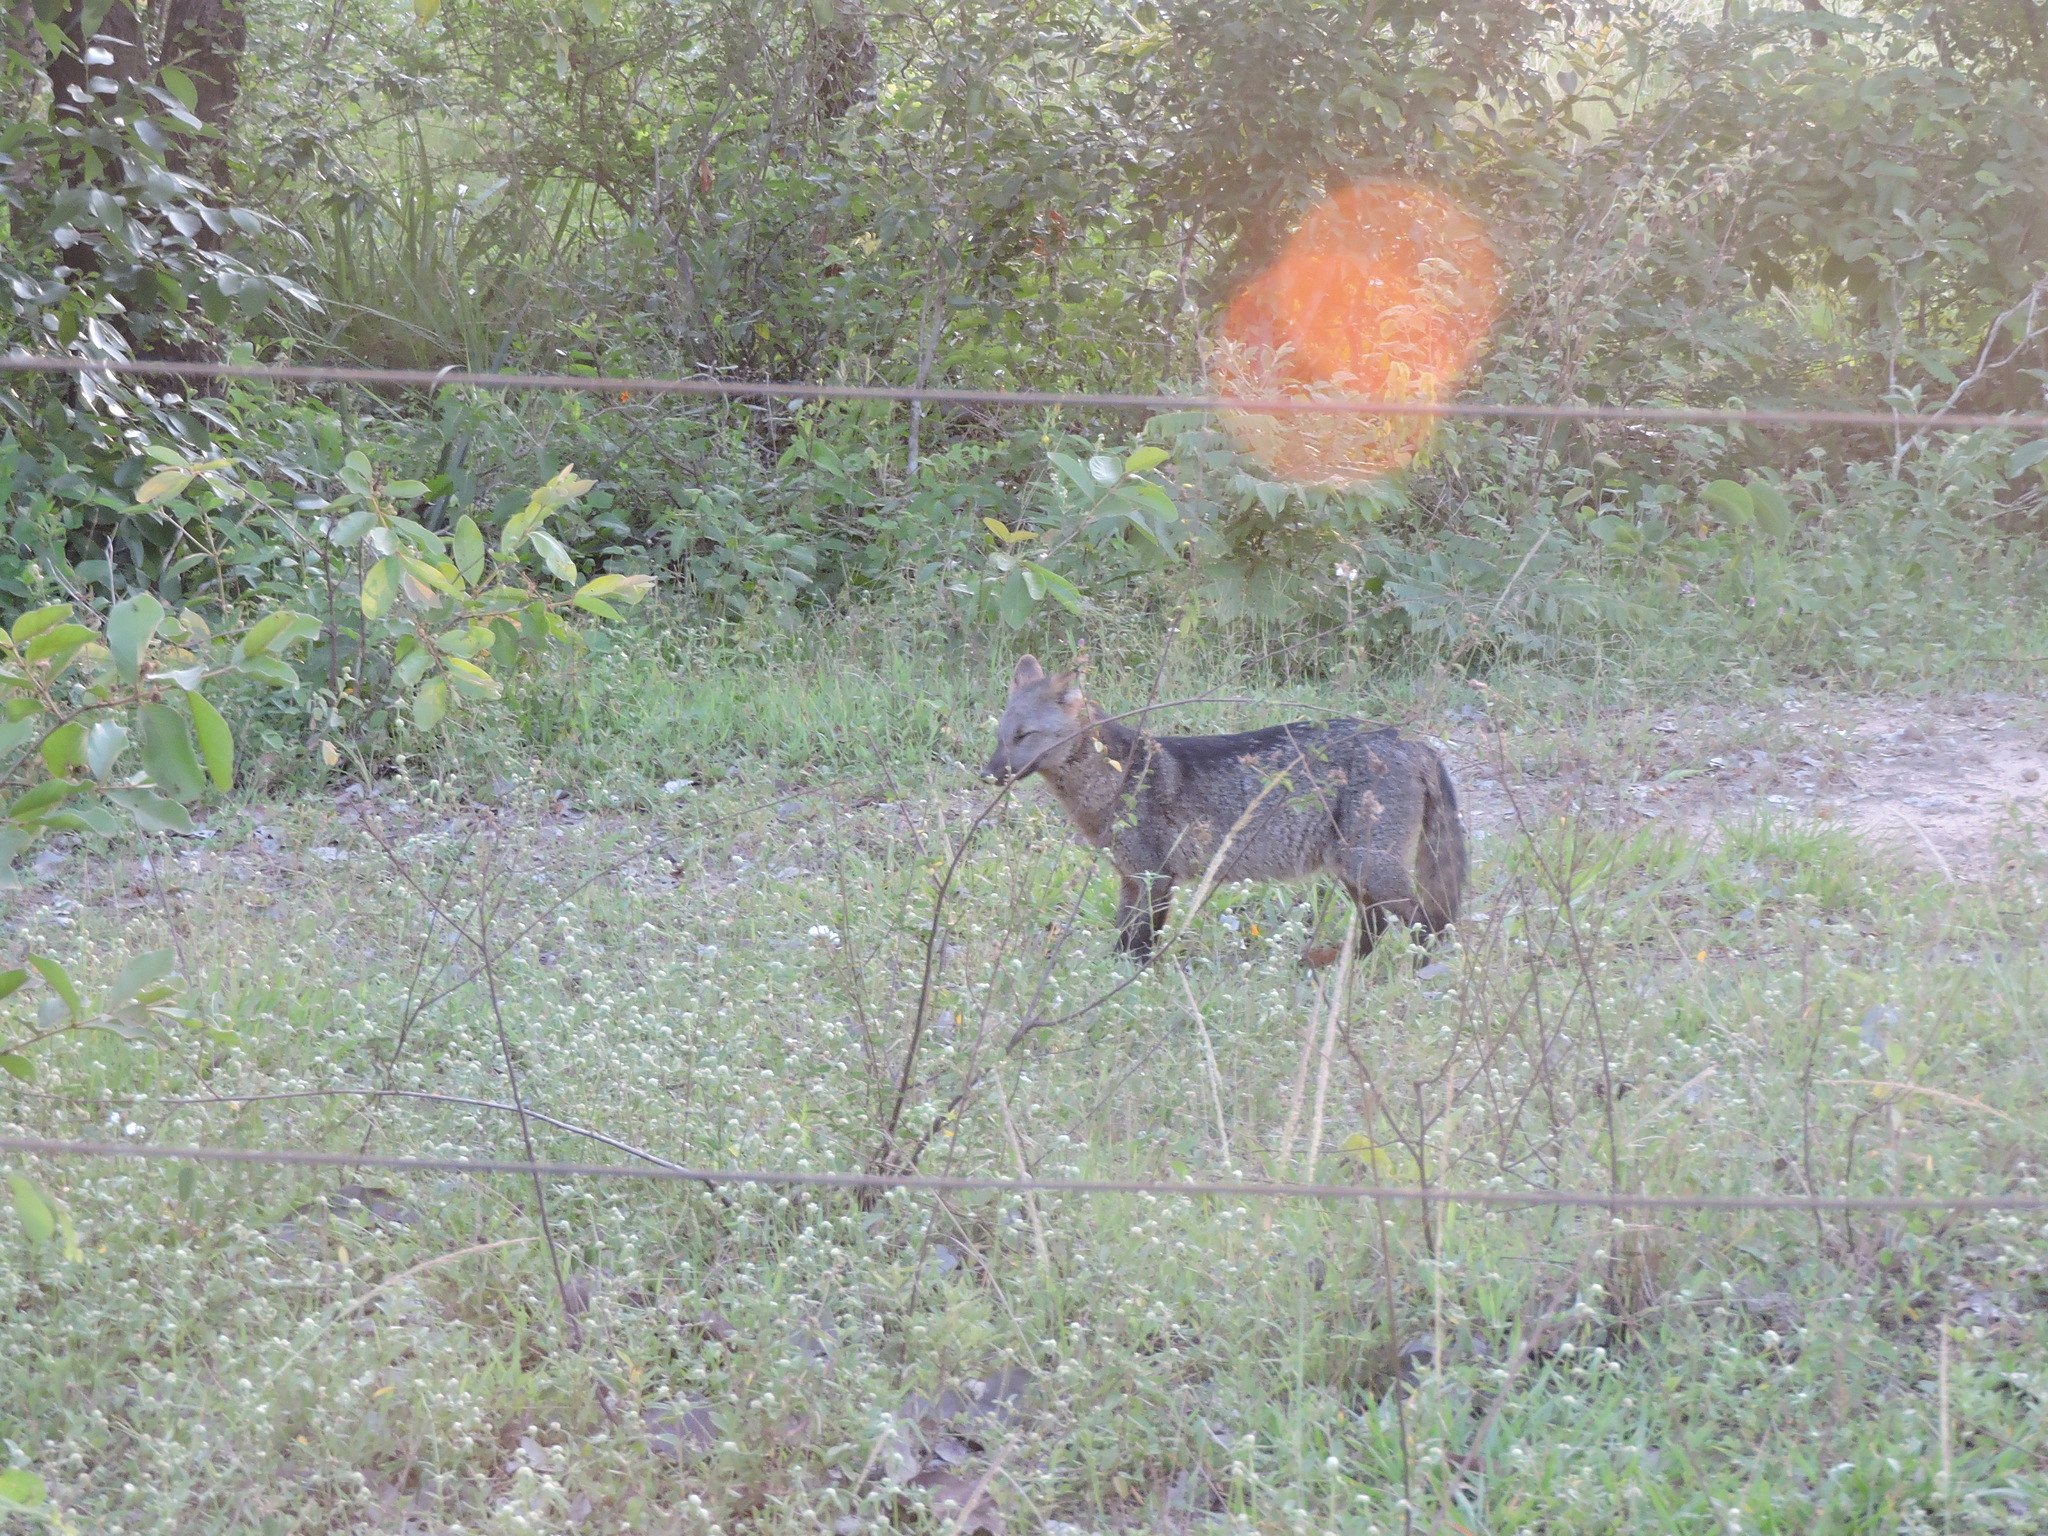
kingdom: Animalia
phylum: Chordata
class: Mammalia
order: Carnivora
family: Canidae
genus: Cerdocyon
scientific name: Cerdocyon thous
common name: Crab-eating fox
